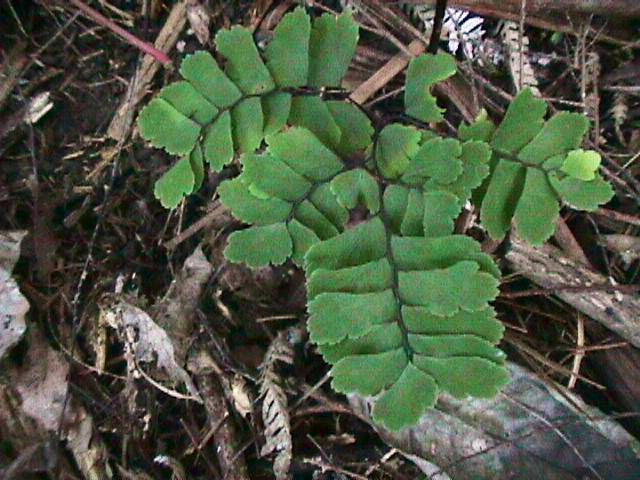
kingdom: Plantae
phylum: Tracheophyta
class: Polypodiopsida
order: Polypodiales
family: Pteridaceae
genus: Adiantum
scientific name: Adiantum cunninghamii
